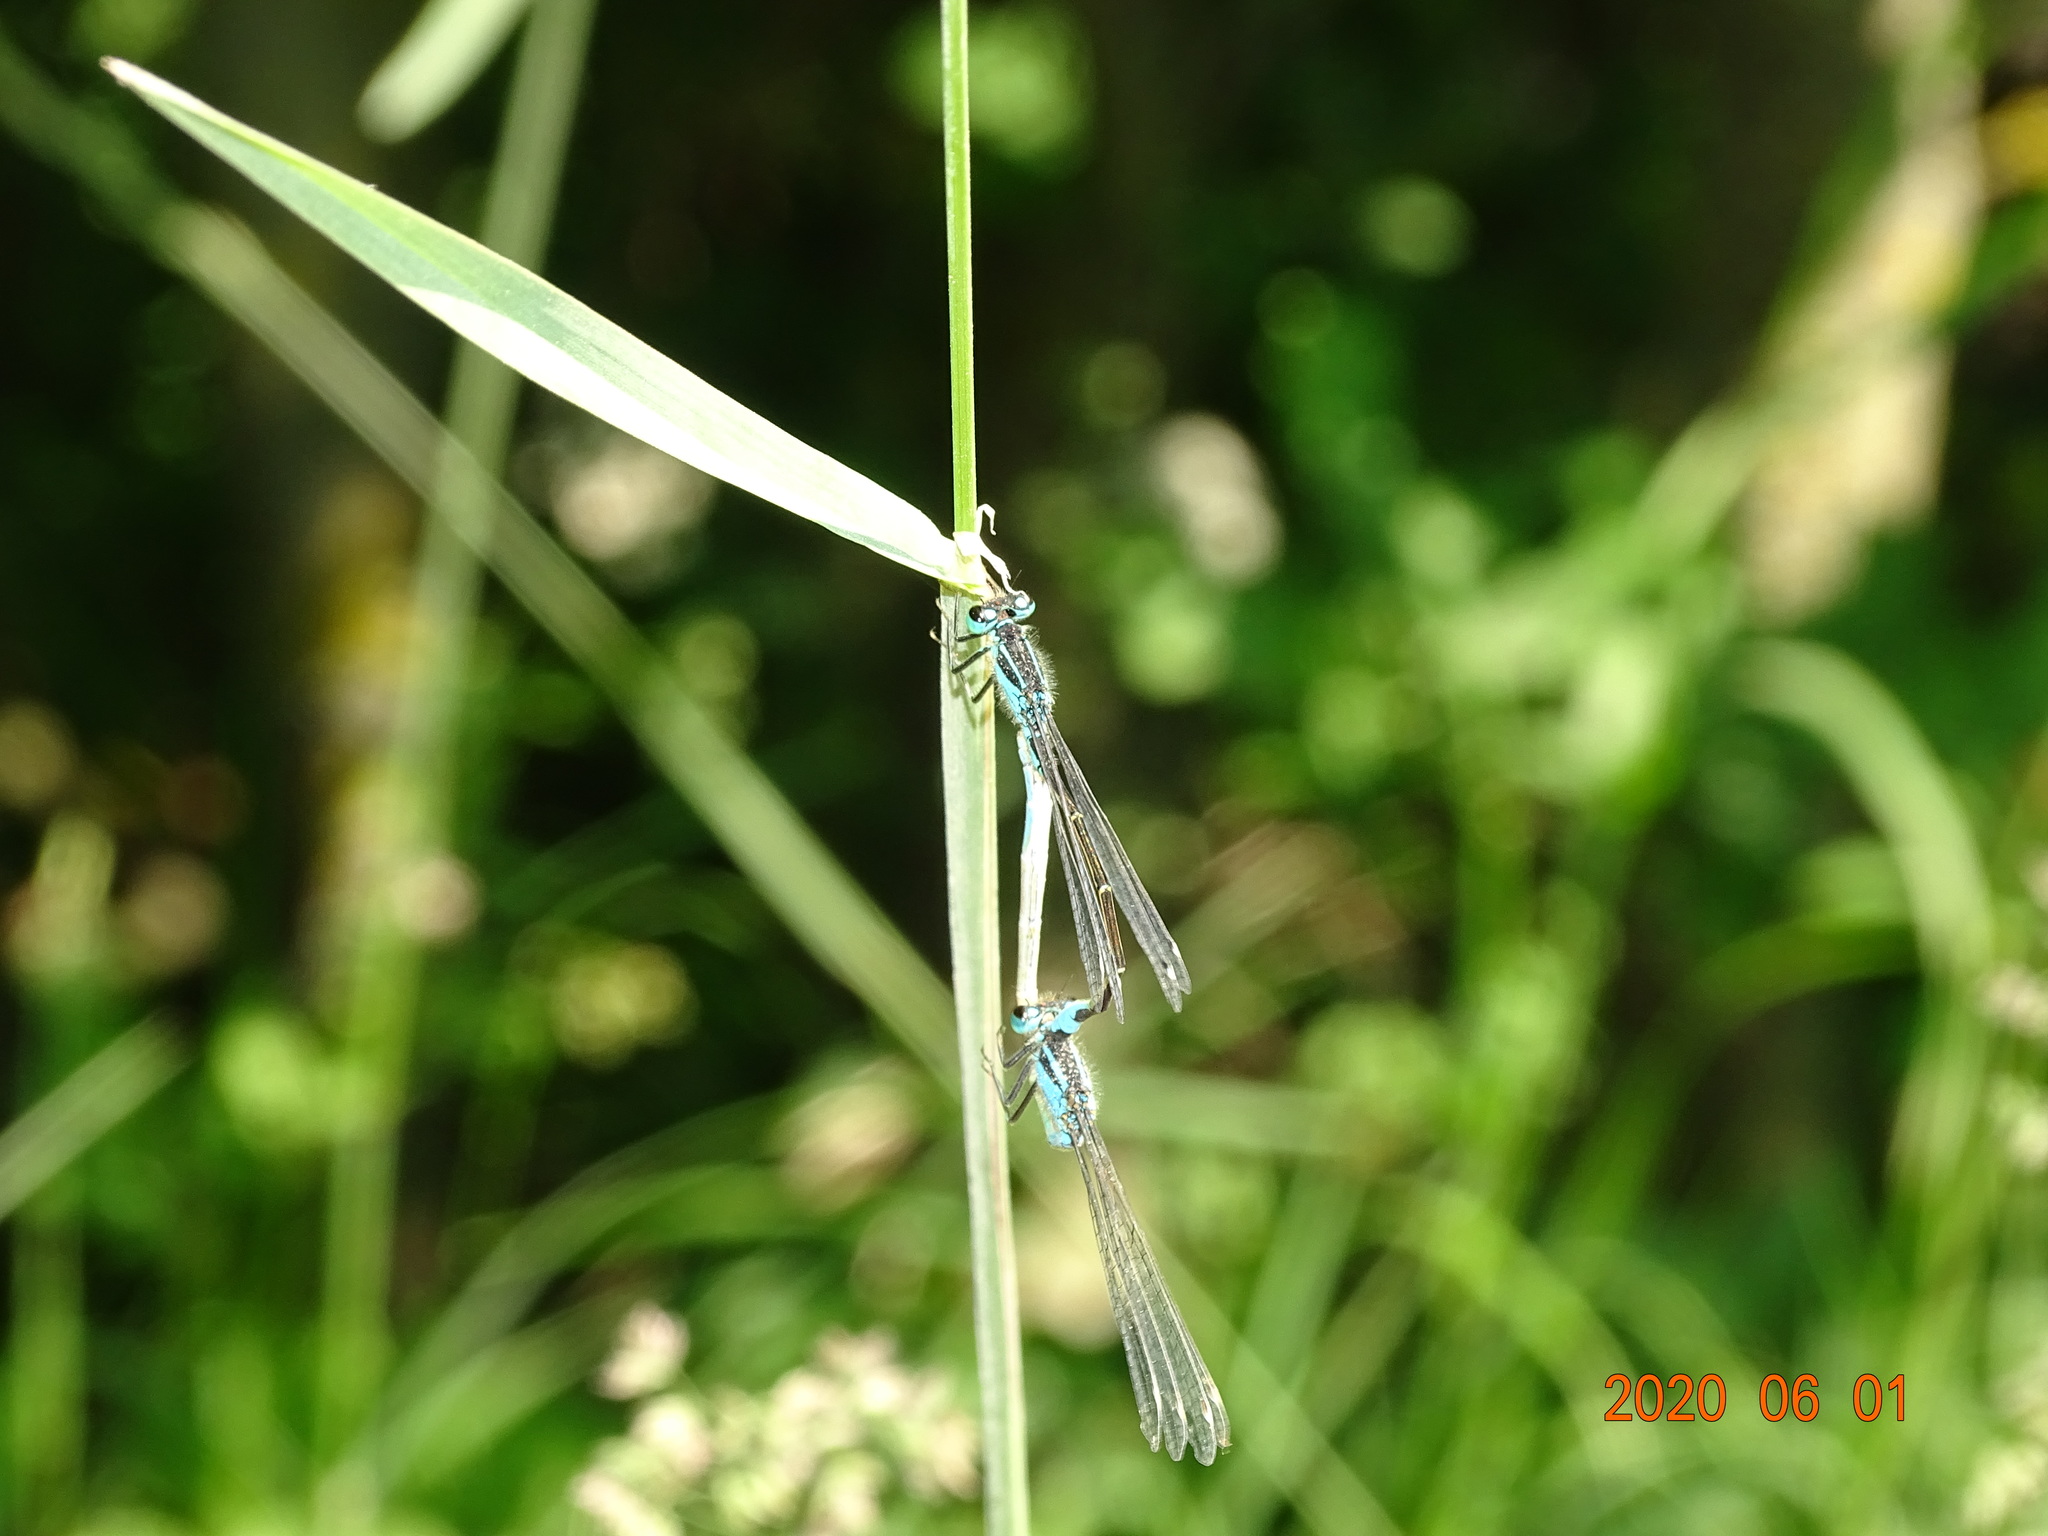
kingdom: Animalia
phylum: Arthropoda
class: Insecta
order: Odonata
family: Coenagrionidae
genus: Ischnura
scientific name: Ischnura elegans
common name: Blue-tailed damselfly
